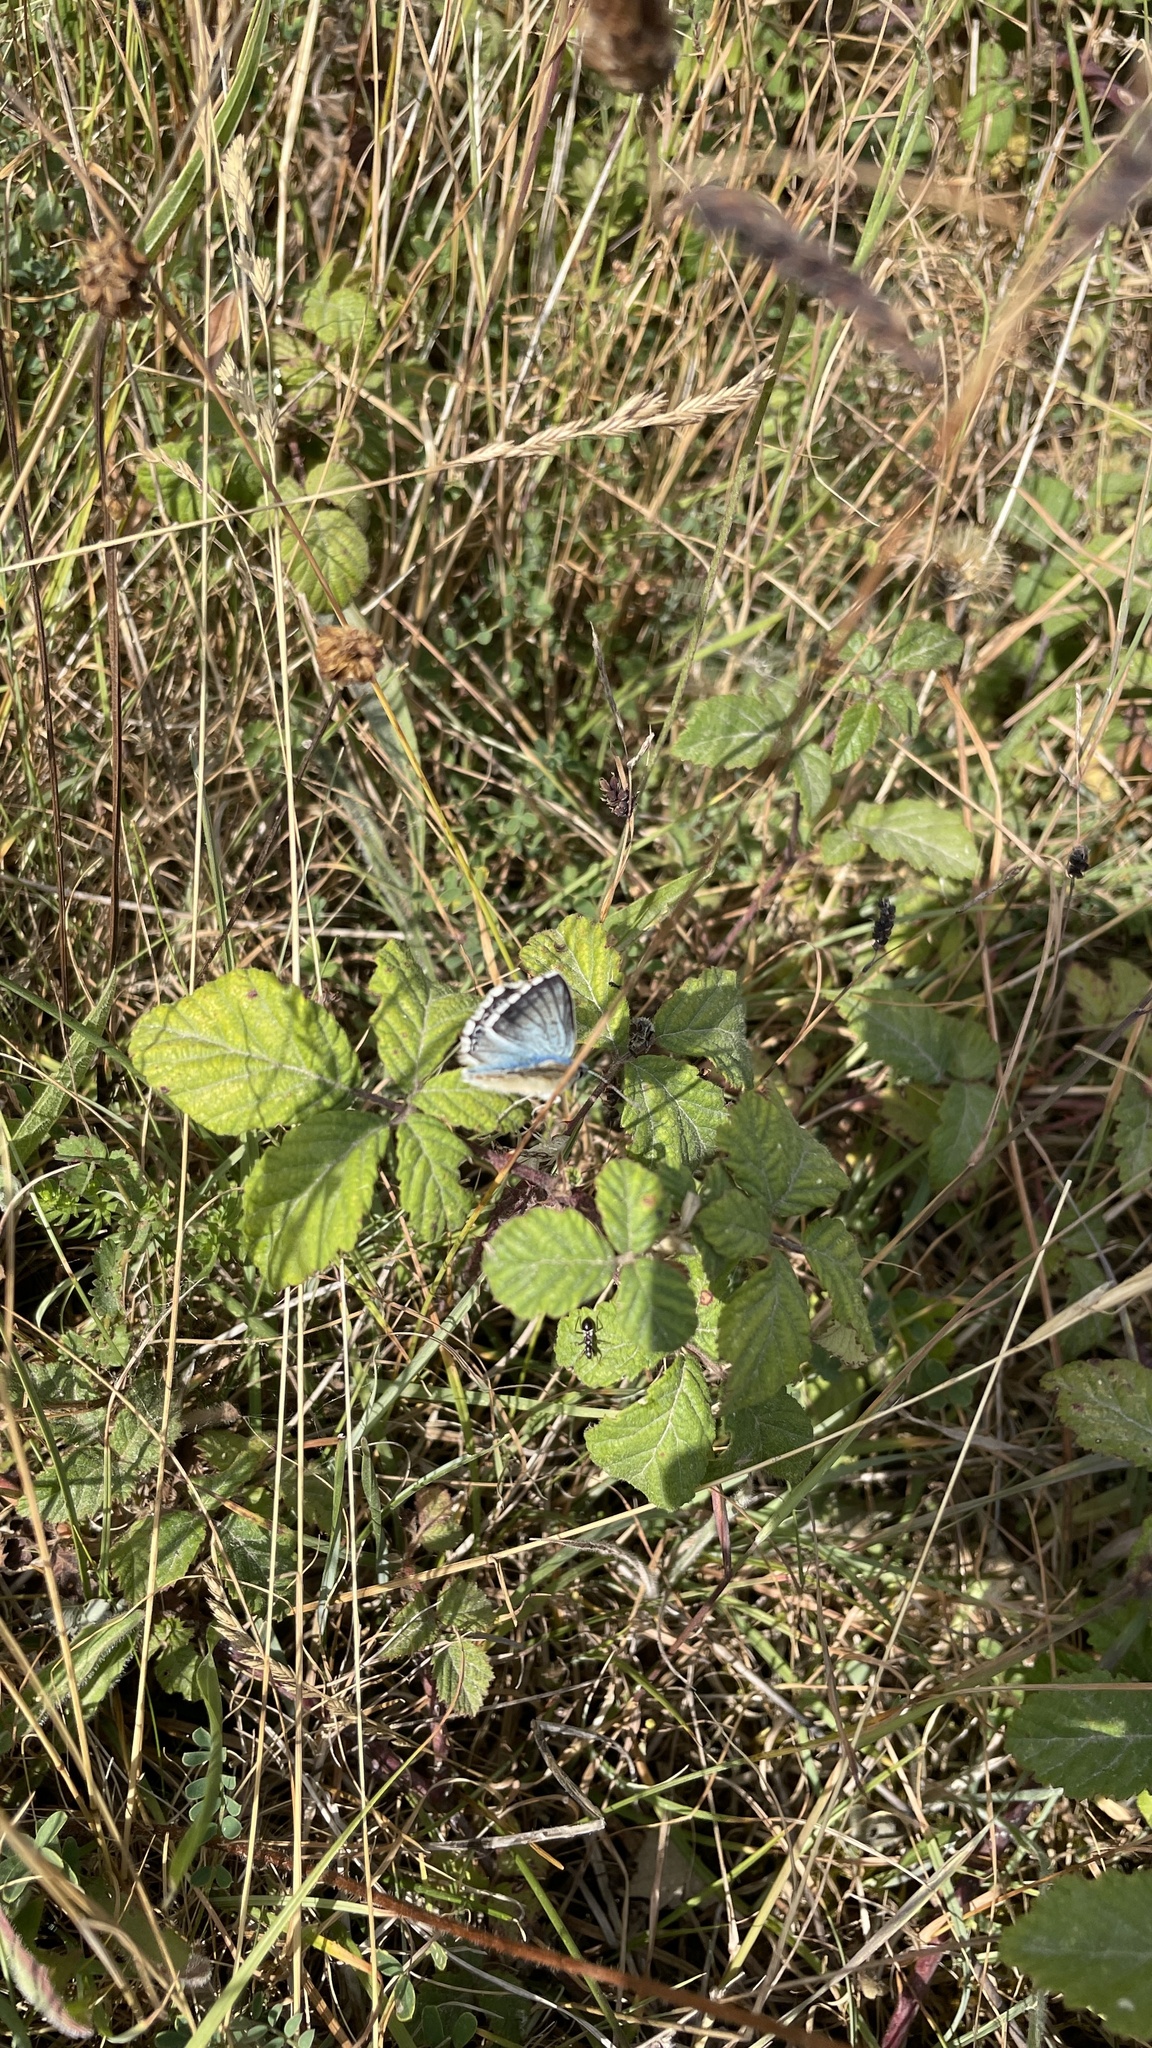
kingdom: Animalia
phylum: Arthropoda
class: Insecta
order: Lepidoptera
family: Lycaenidae
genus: Lysandra
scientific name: Lysandra coridon
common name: Chalkhill blue
